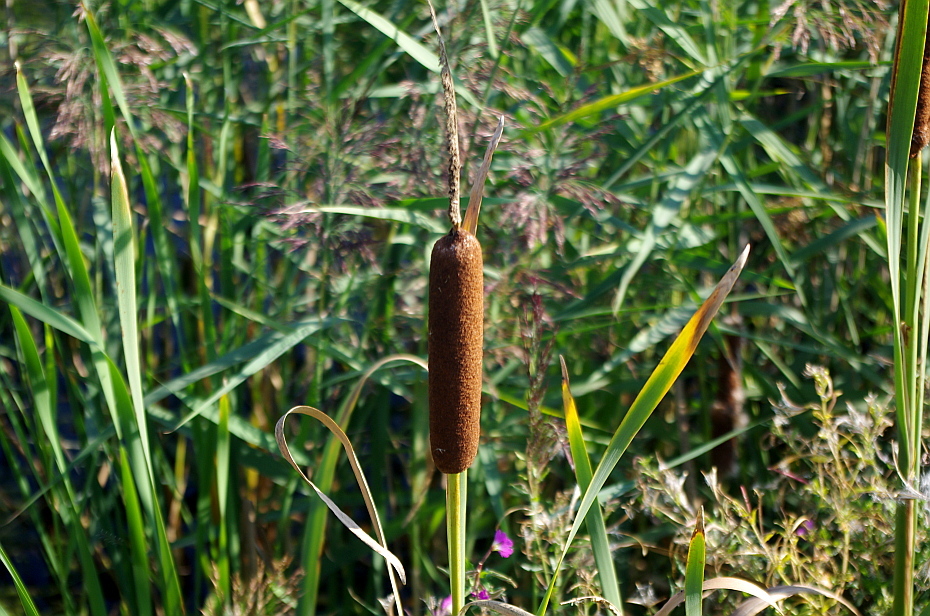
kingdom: Plantae
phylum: Tracheophyta
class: Liliopsida
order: Poales
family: Typhaceae
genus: Typha
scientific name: Typha latifolia
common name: Broadleaf cattail
